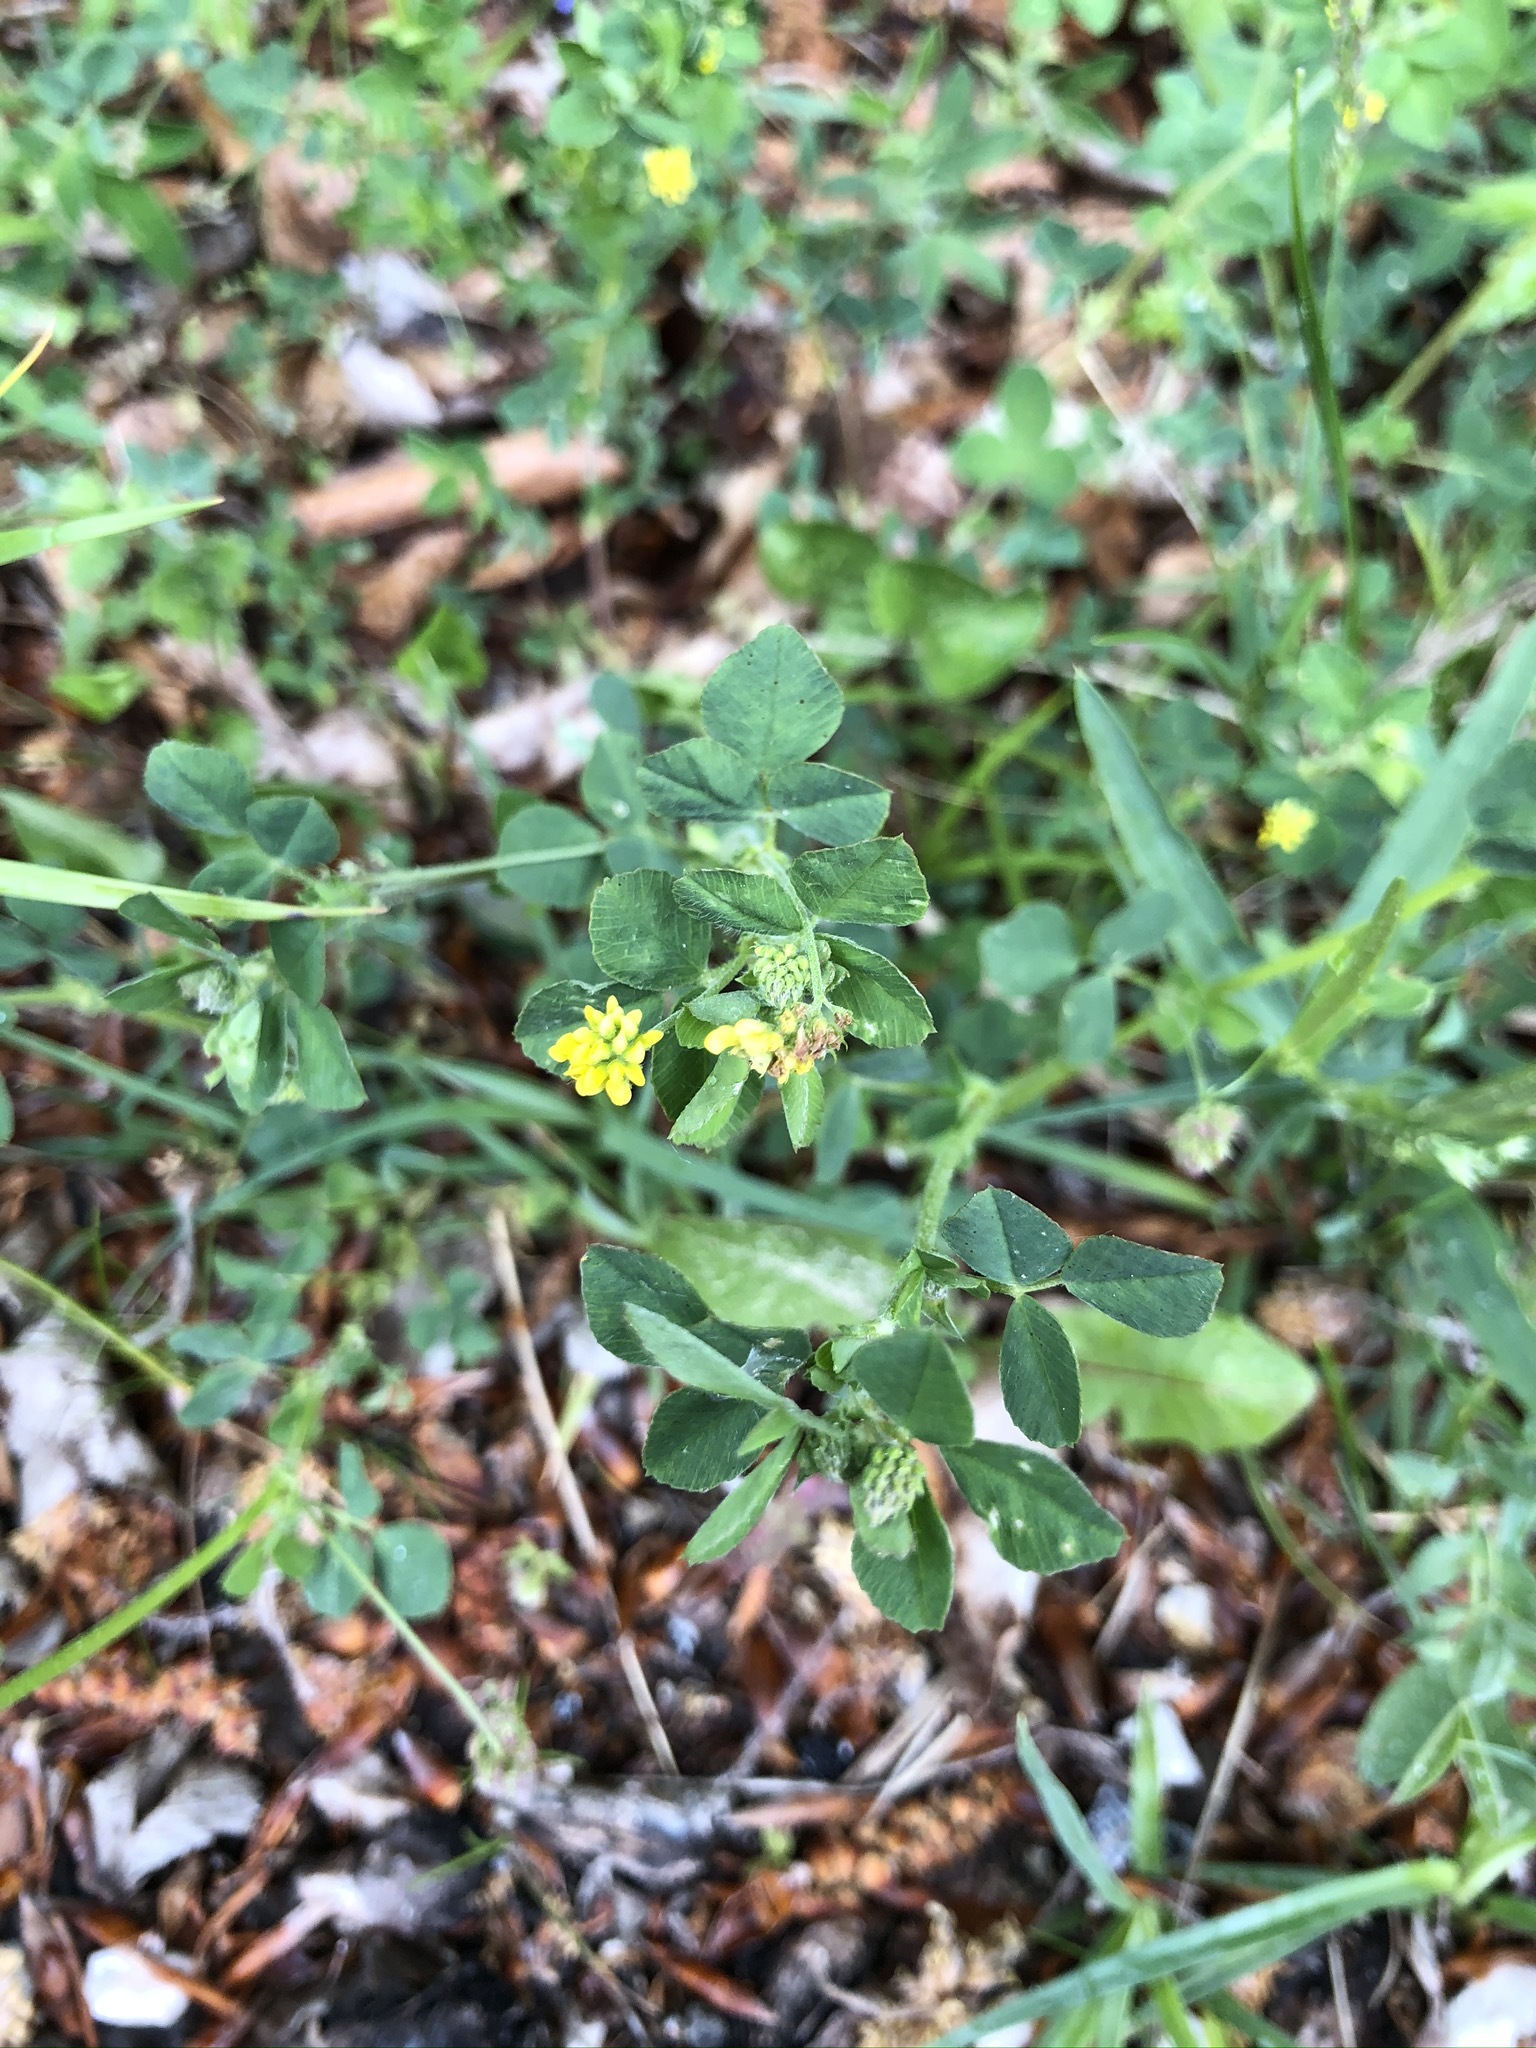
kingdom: Plantae
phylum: Tracheophyta
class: Magnoliopsida
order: Fabales
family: Fabaceae
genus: Medicago
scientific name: Medicago lupulina
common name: Black medick
